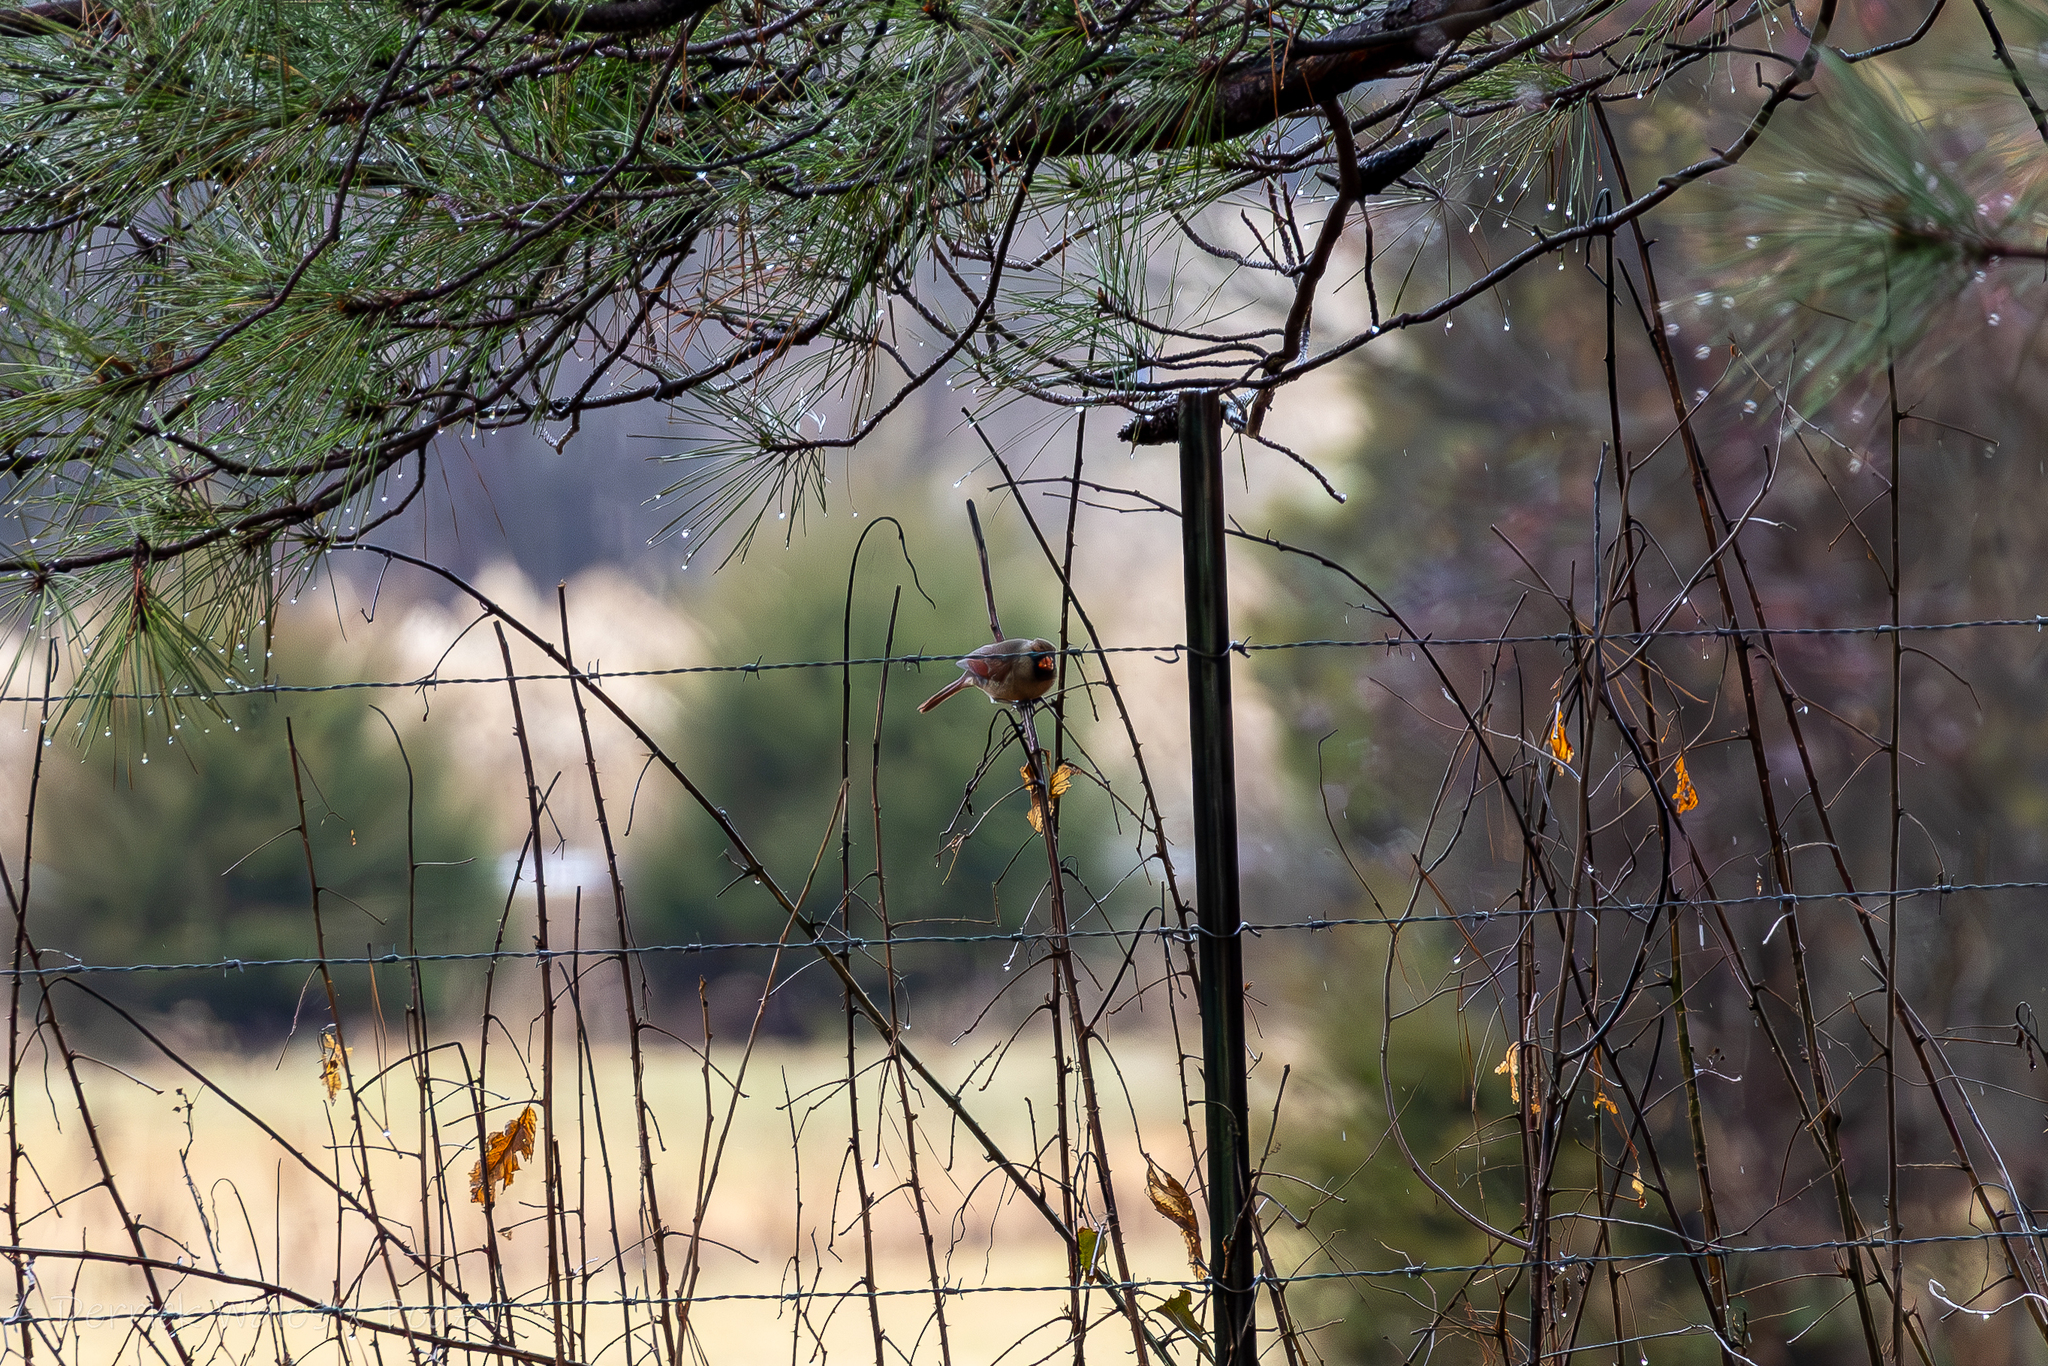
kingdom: Animalia
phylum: Chordata
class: Aves
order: Passeriformes
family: Cardinalidae
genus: Cardinalis
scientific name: Cardinalis cardinalis
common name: Northern cardinal
